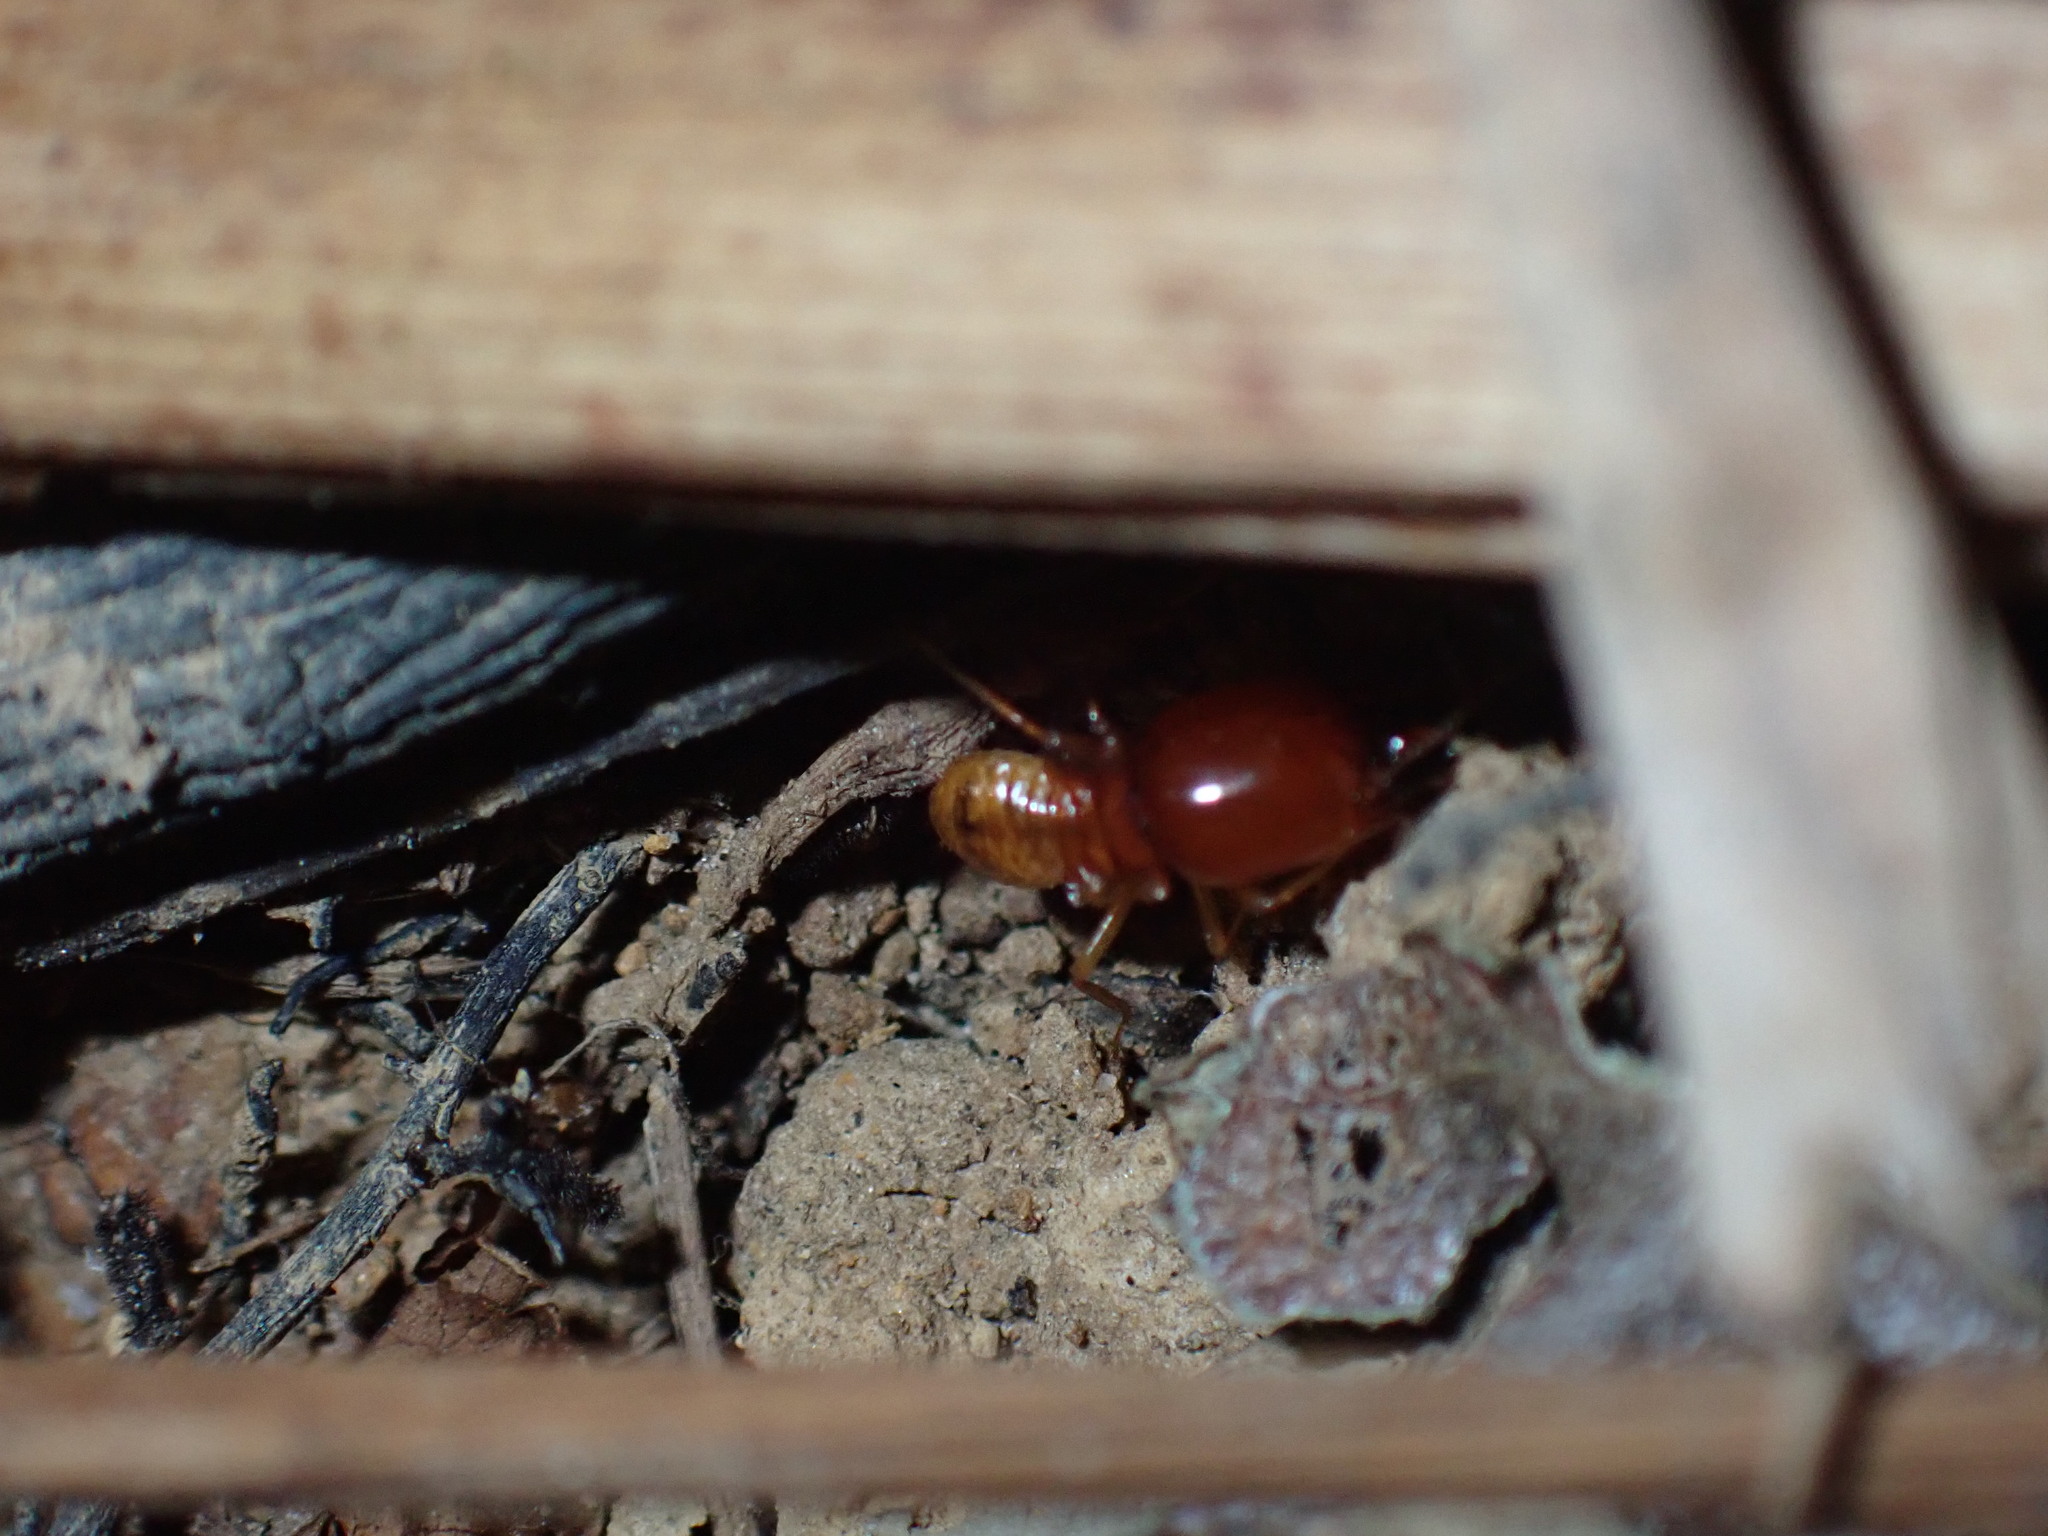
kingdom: Animalia
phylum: Arthropoda
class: Insecta
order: Blattodea
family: Termitidae
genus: Macrotermes
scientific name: Macrotermes gilvus
